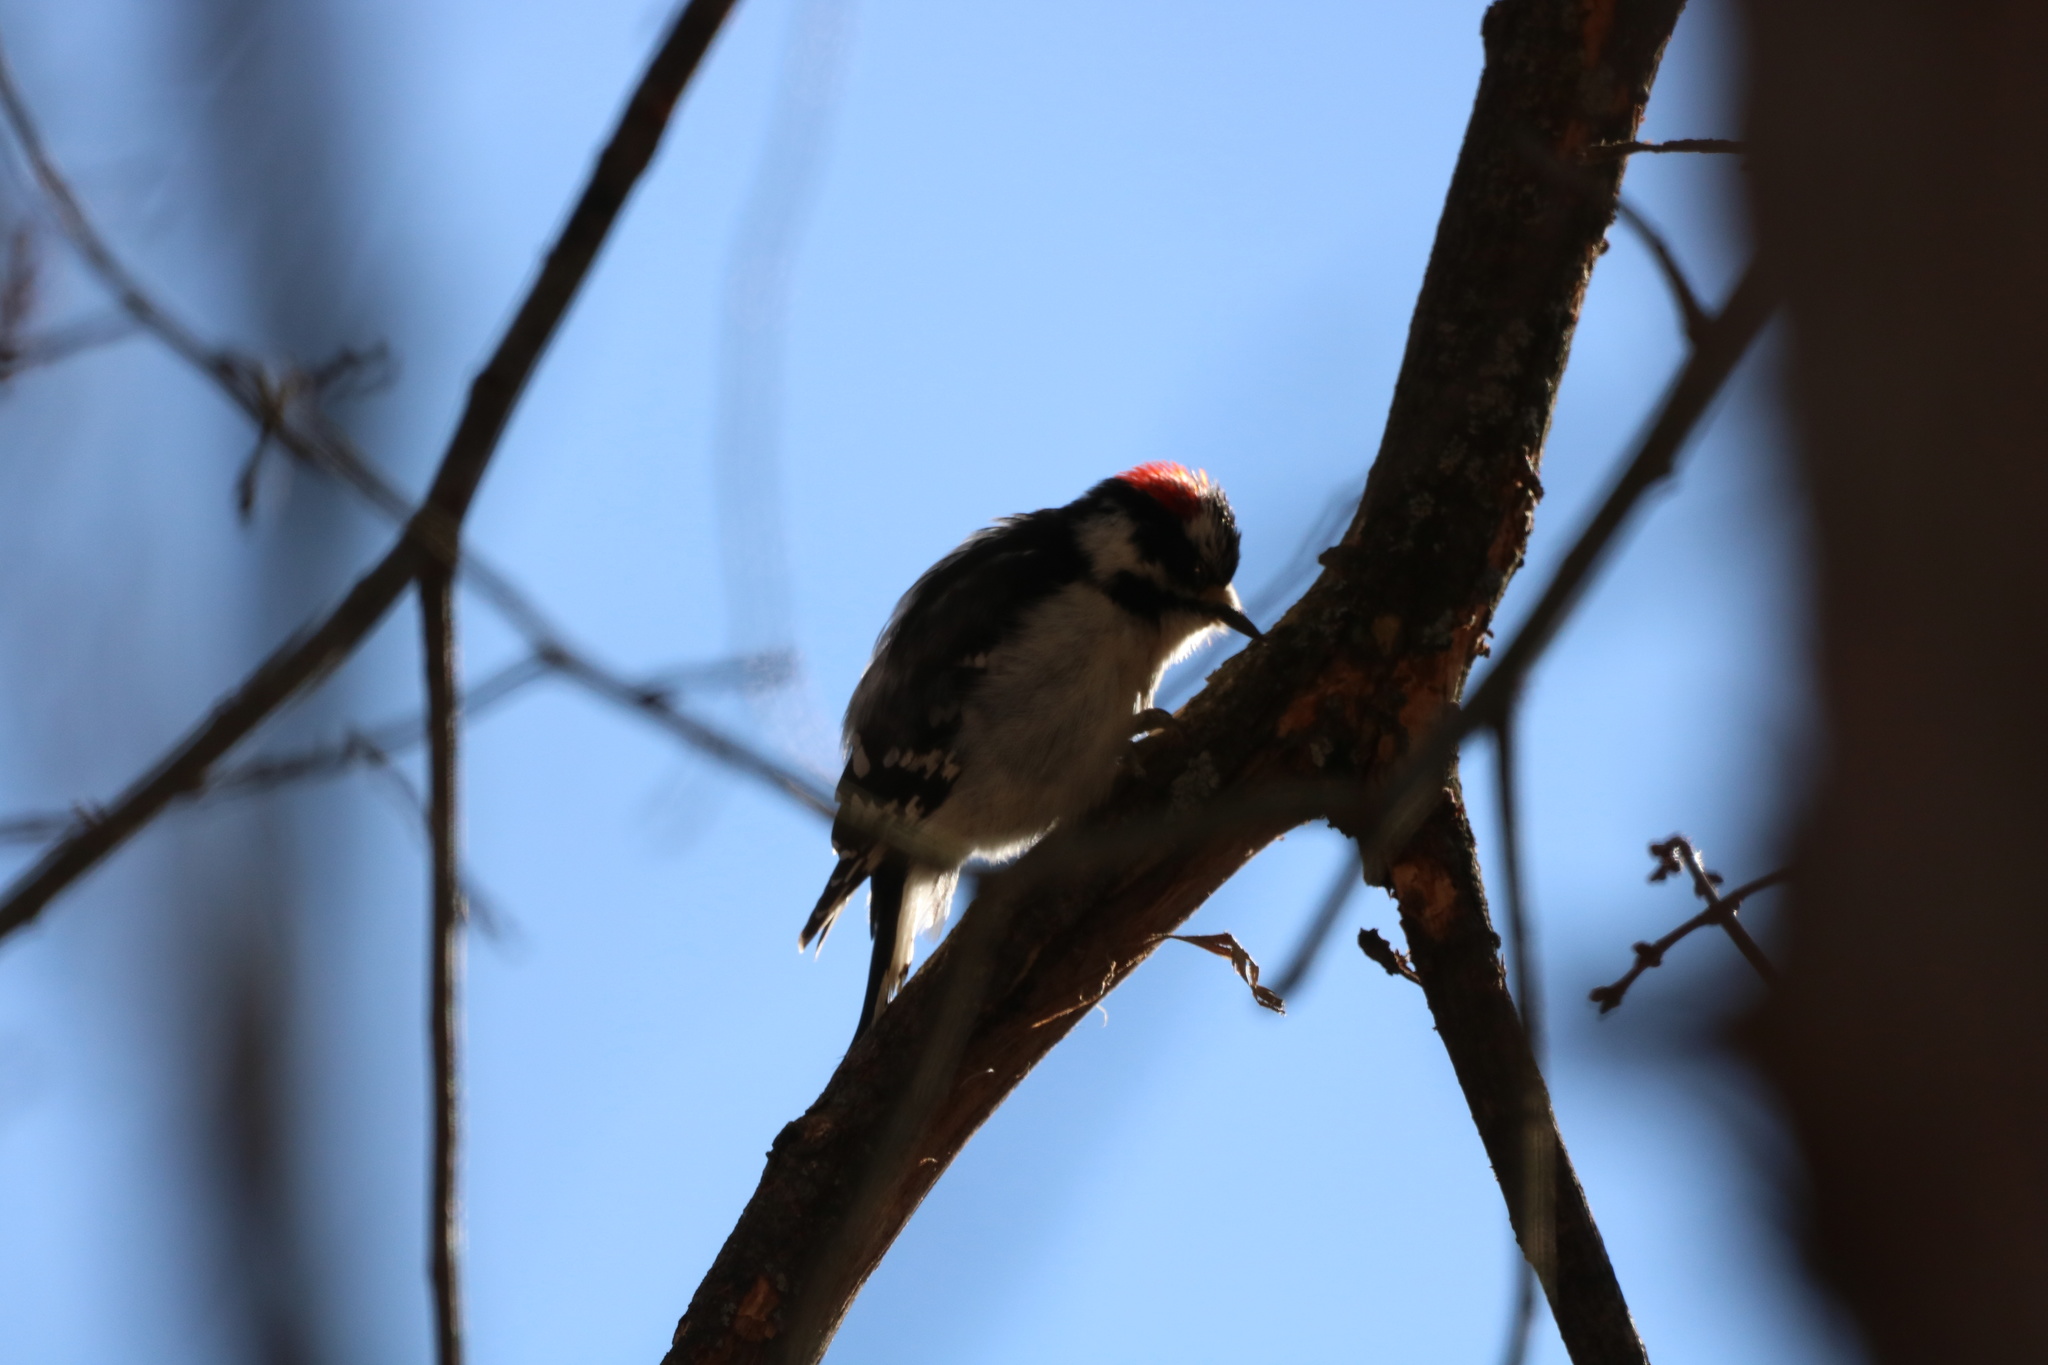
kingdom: Animalia
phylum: Chordata
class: Aves
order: Piciformes
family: Picidae
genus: Dryobates
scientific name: Dryobates pubescens
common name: Downy woodpecker
